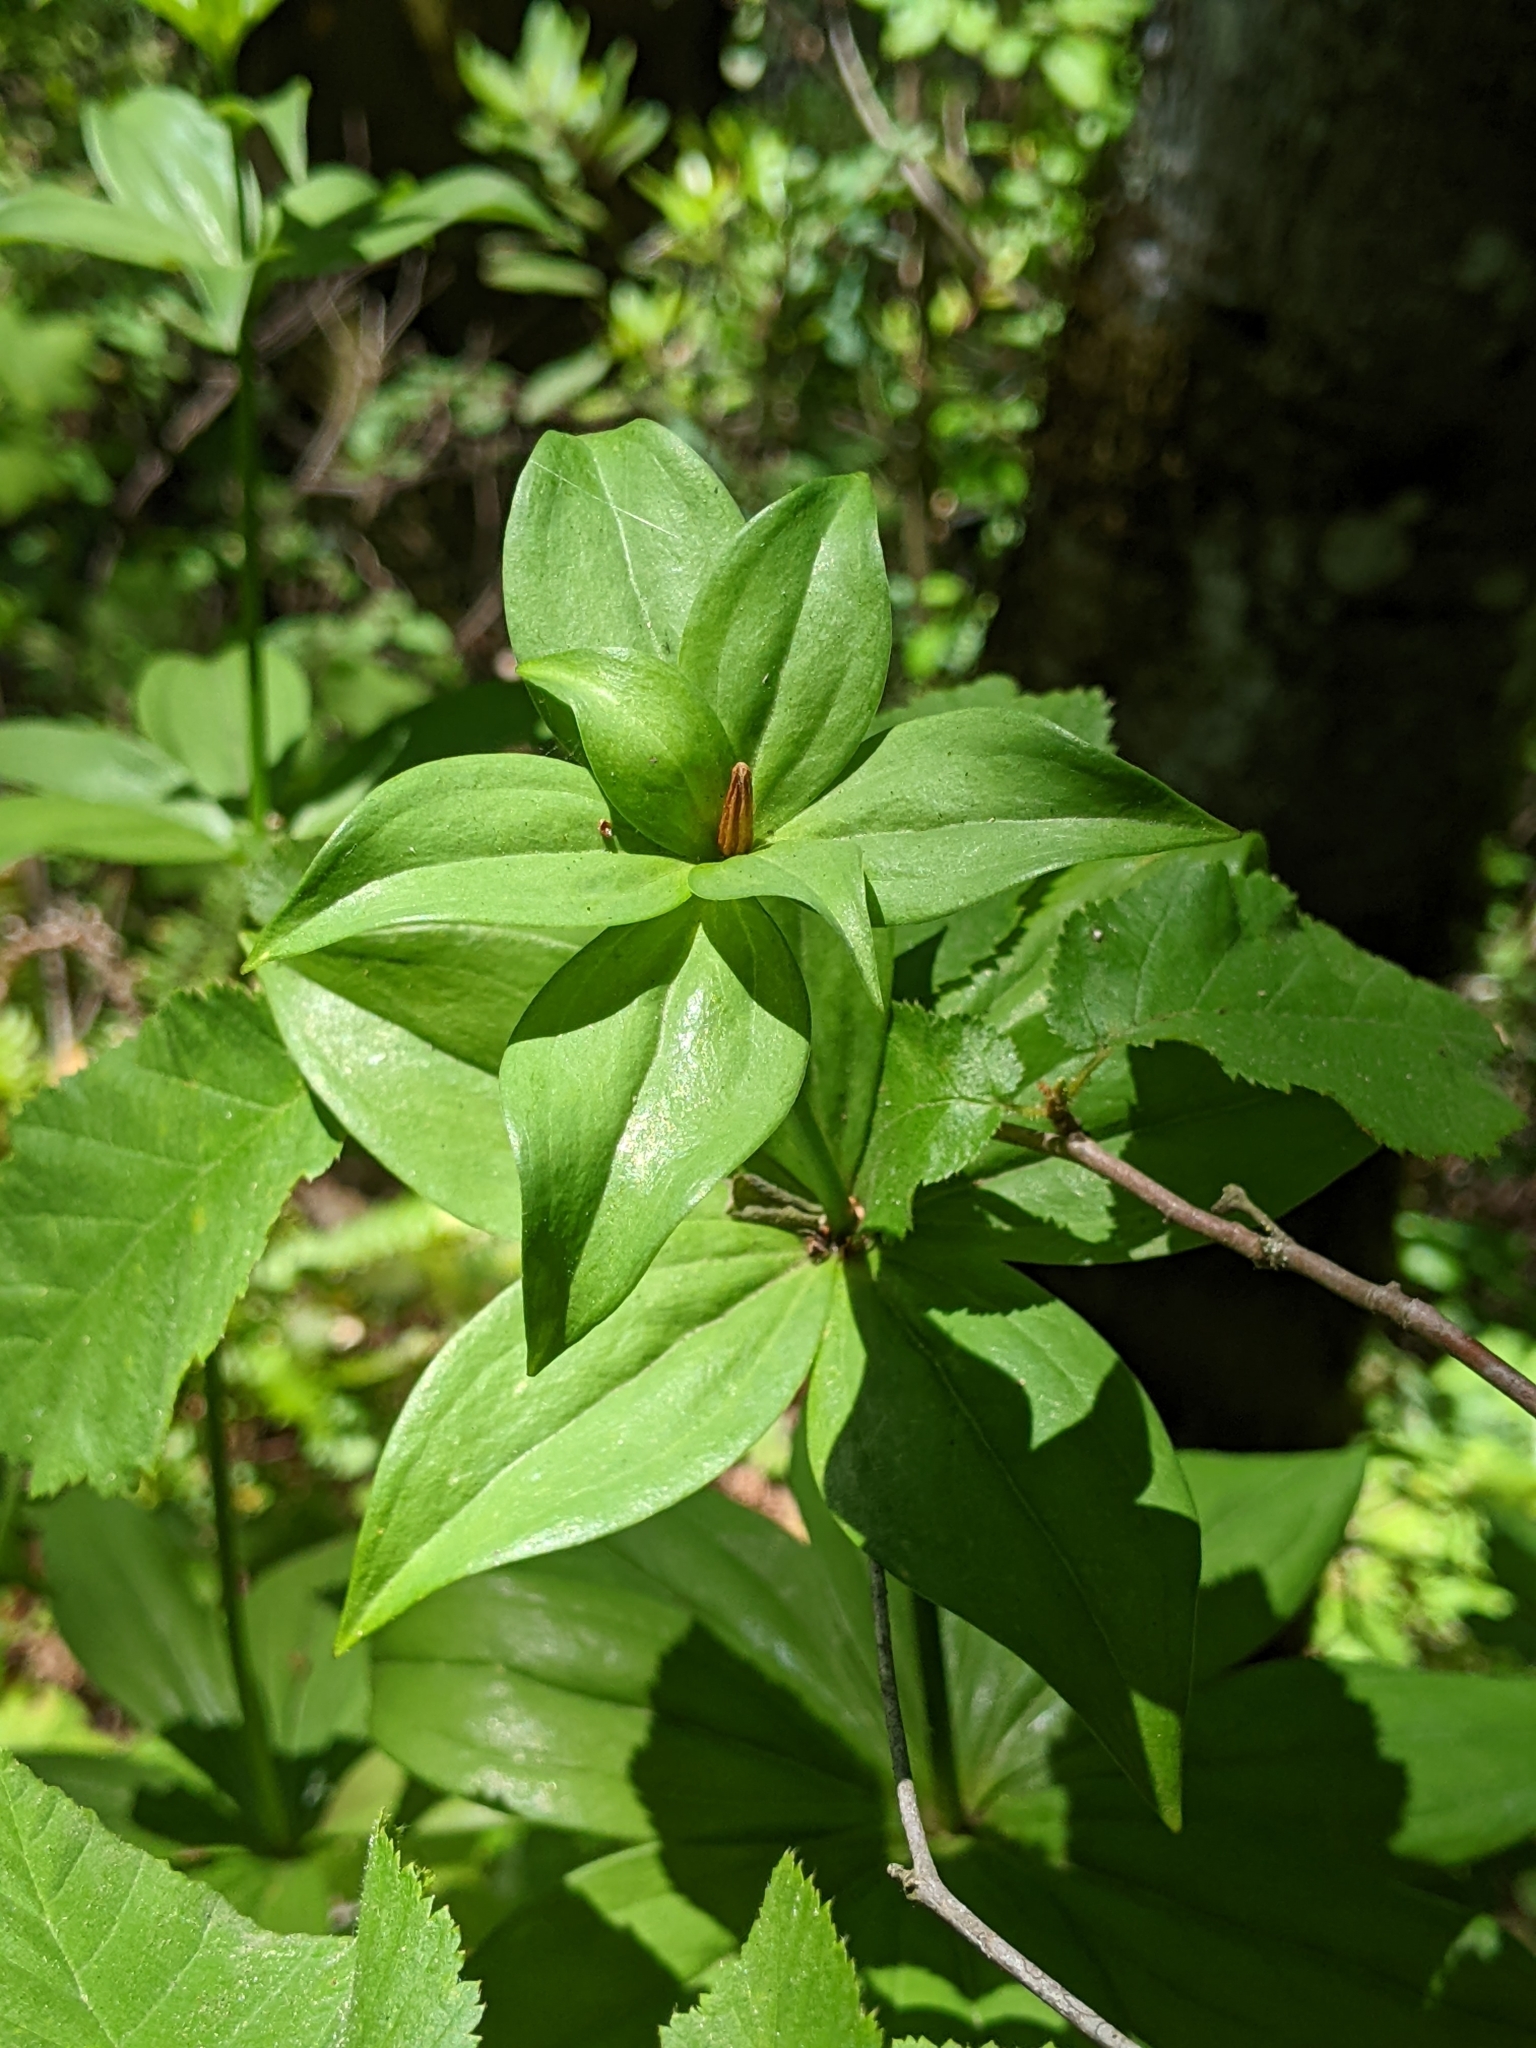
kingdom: Plantae
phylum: Tracheophyta
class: Liliopsida
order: Liliales
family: Liliaceae
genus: Lilium
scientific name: Lilium pardalinum
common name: Panther lily
